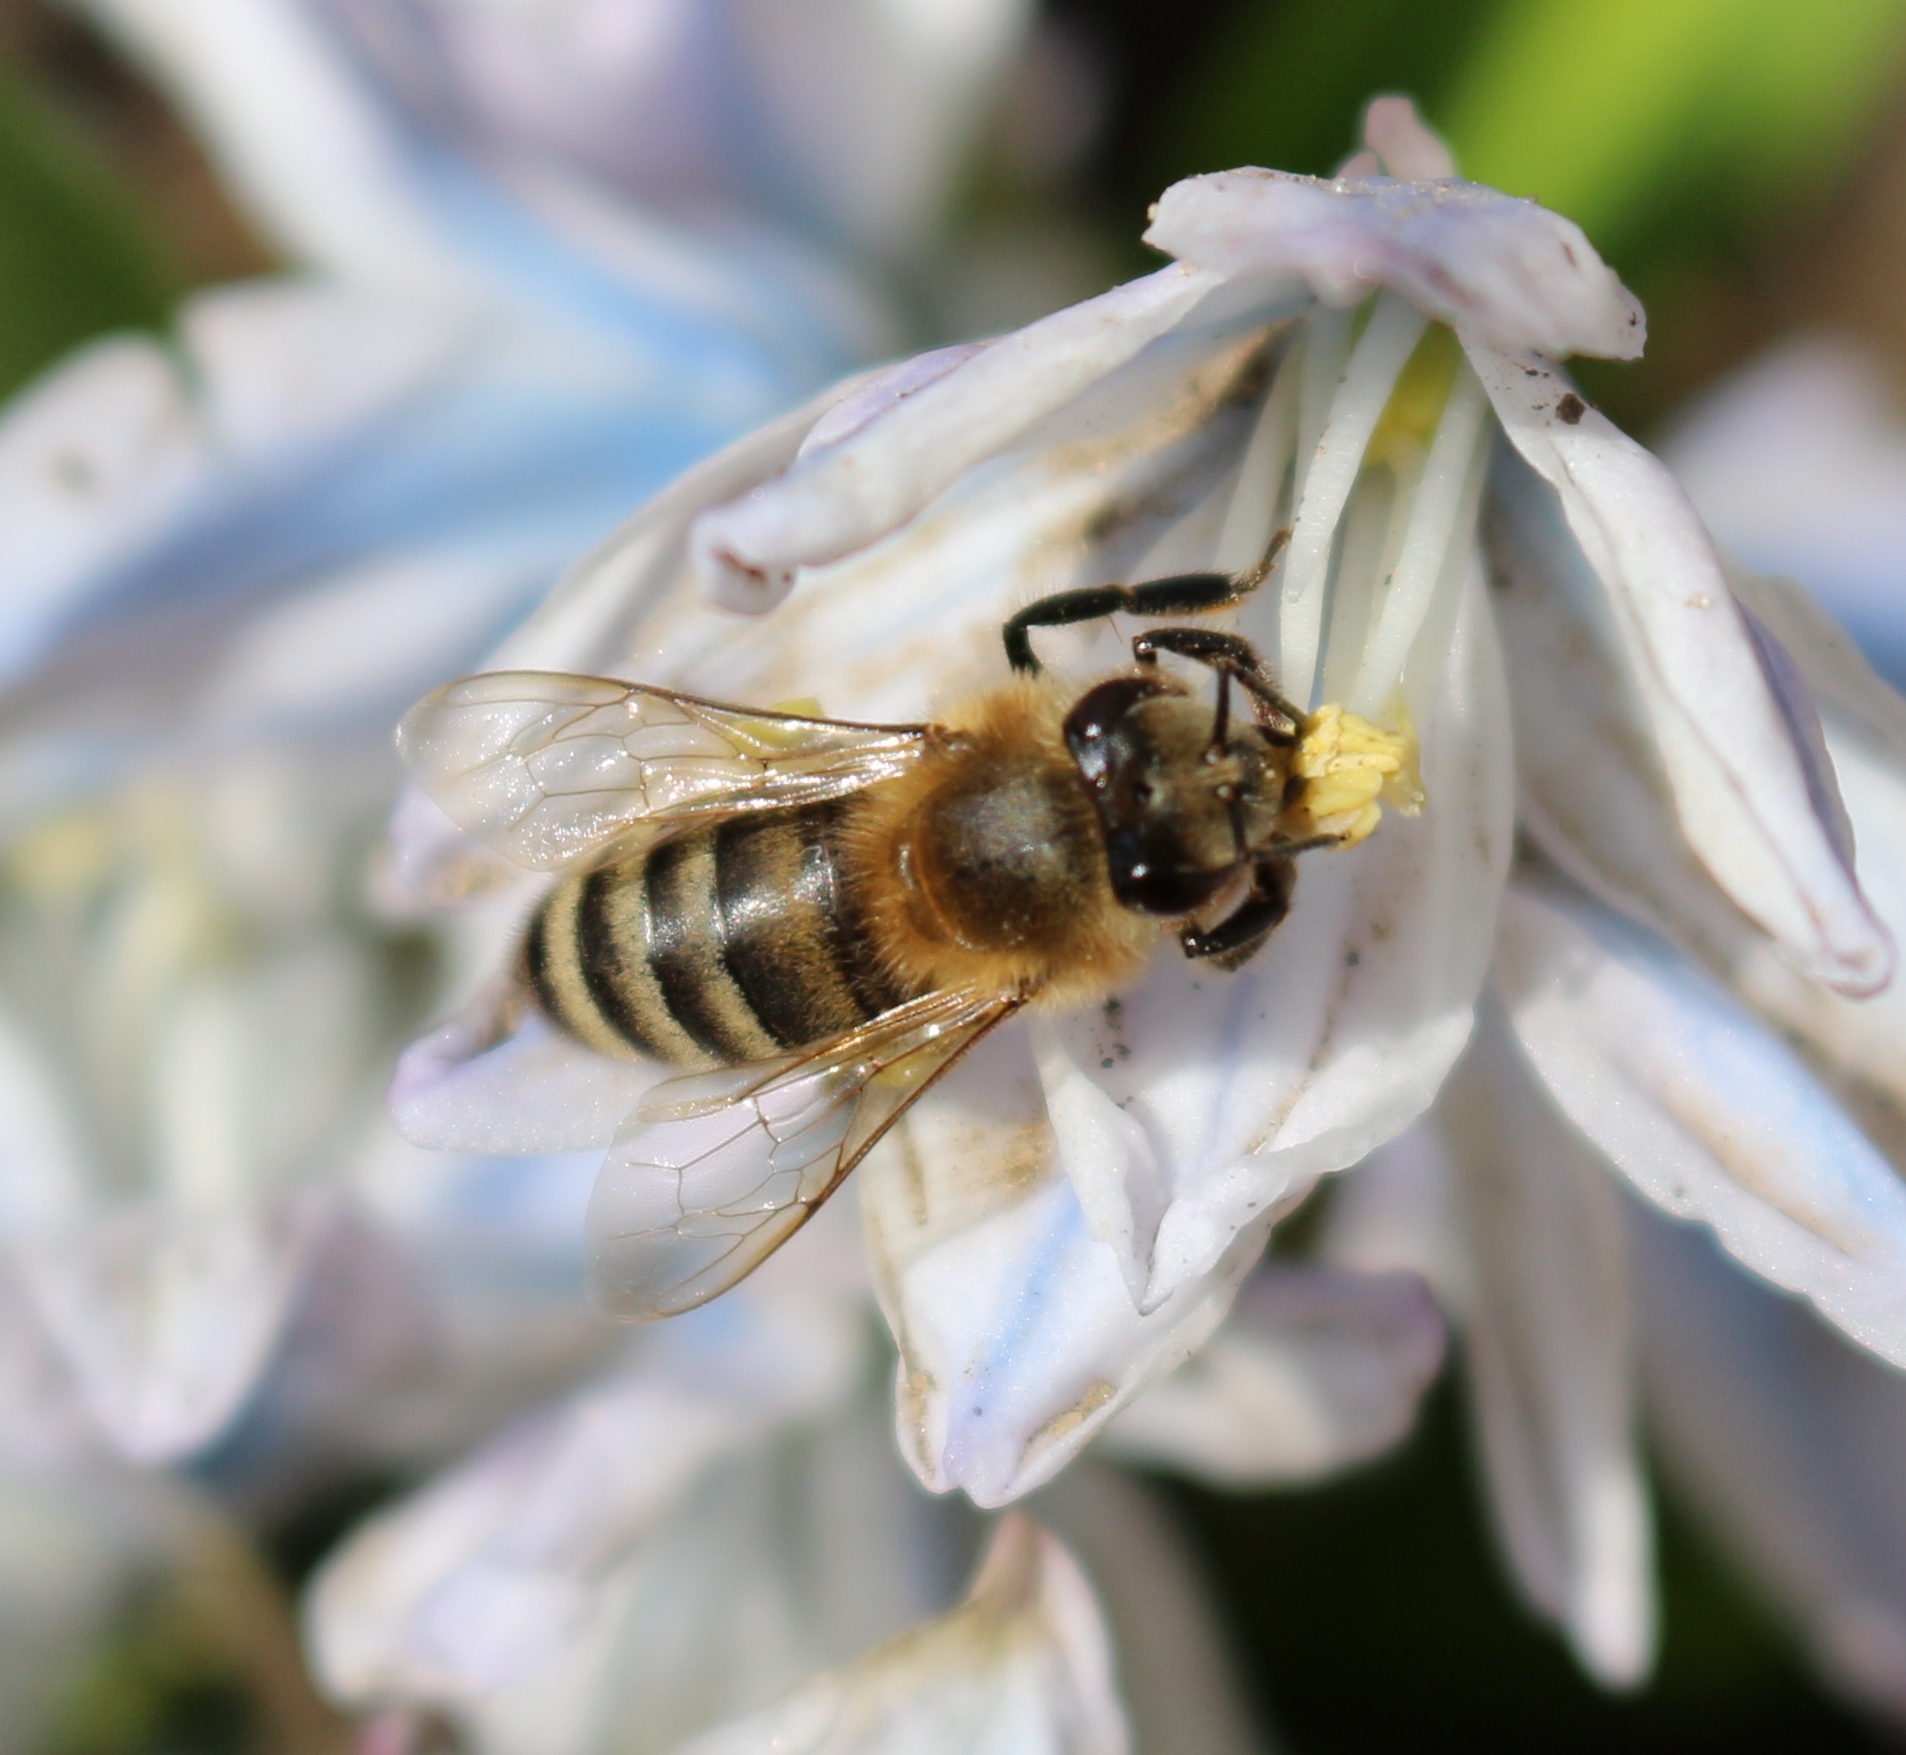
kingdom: Animalia
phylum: Arthropoda
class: Insecta
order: Hymenoptera
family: Apidae
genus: Apis
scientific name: Apis mellifera
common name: Honey bee
